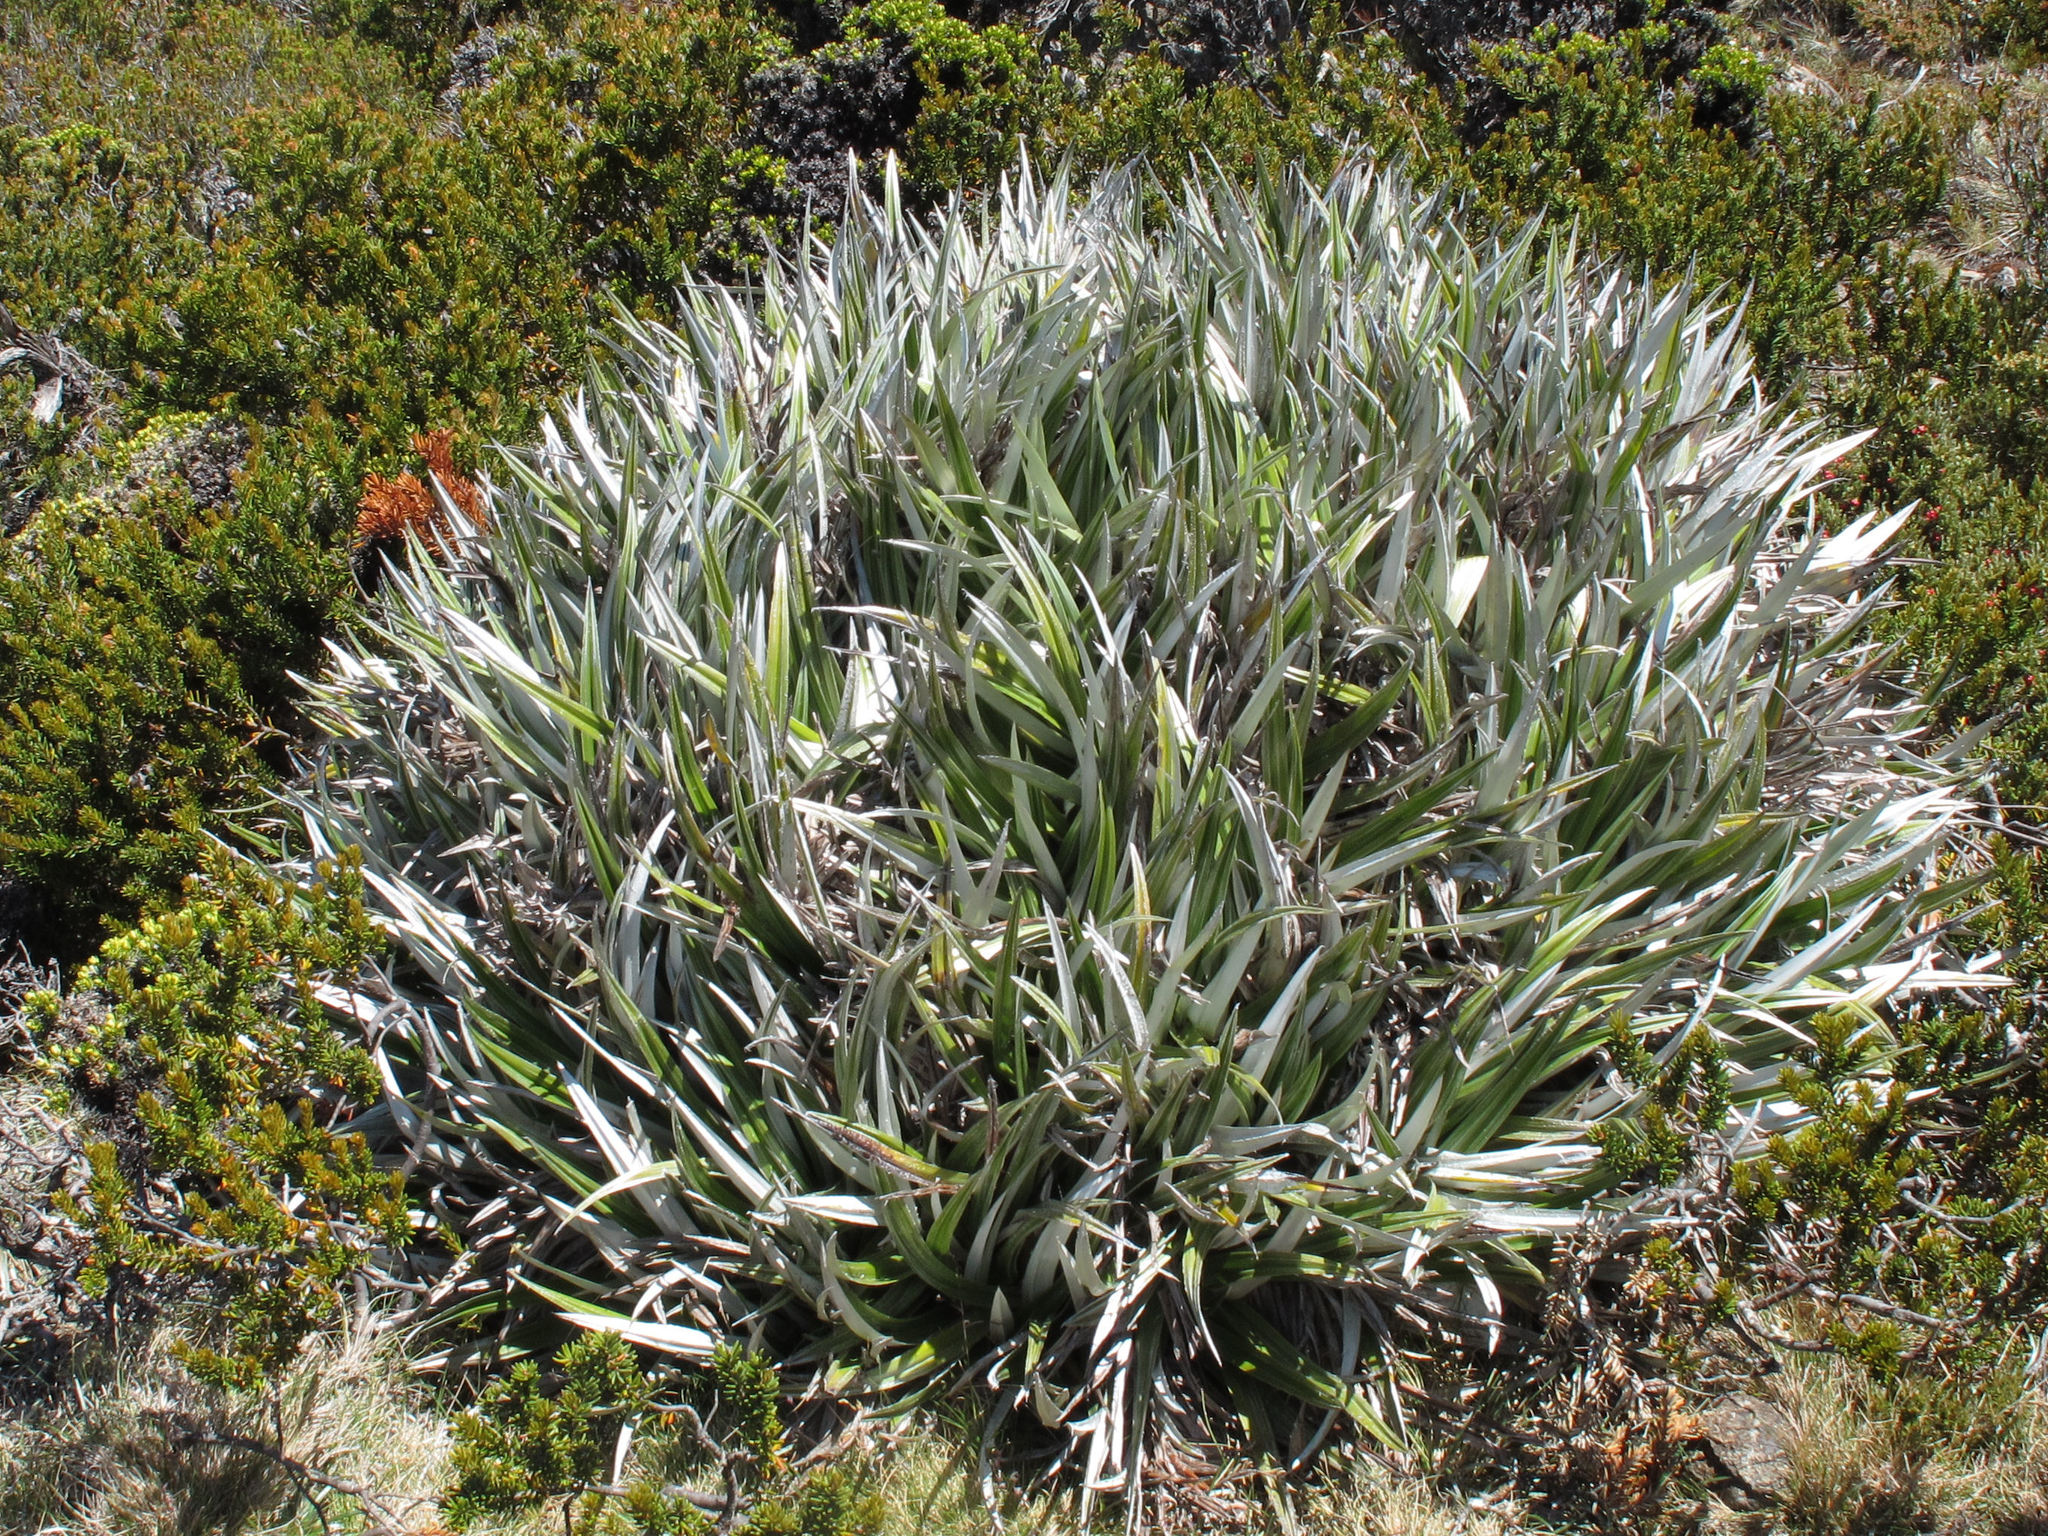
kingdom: Plantae
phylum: Tracheophyta
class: Liliopsida
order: Asparagales
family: Asteliaceae
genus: Astelia
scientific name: Astelia alpina
